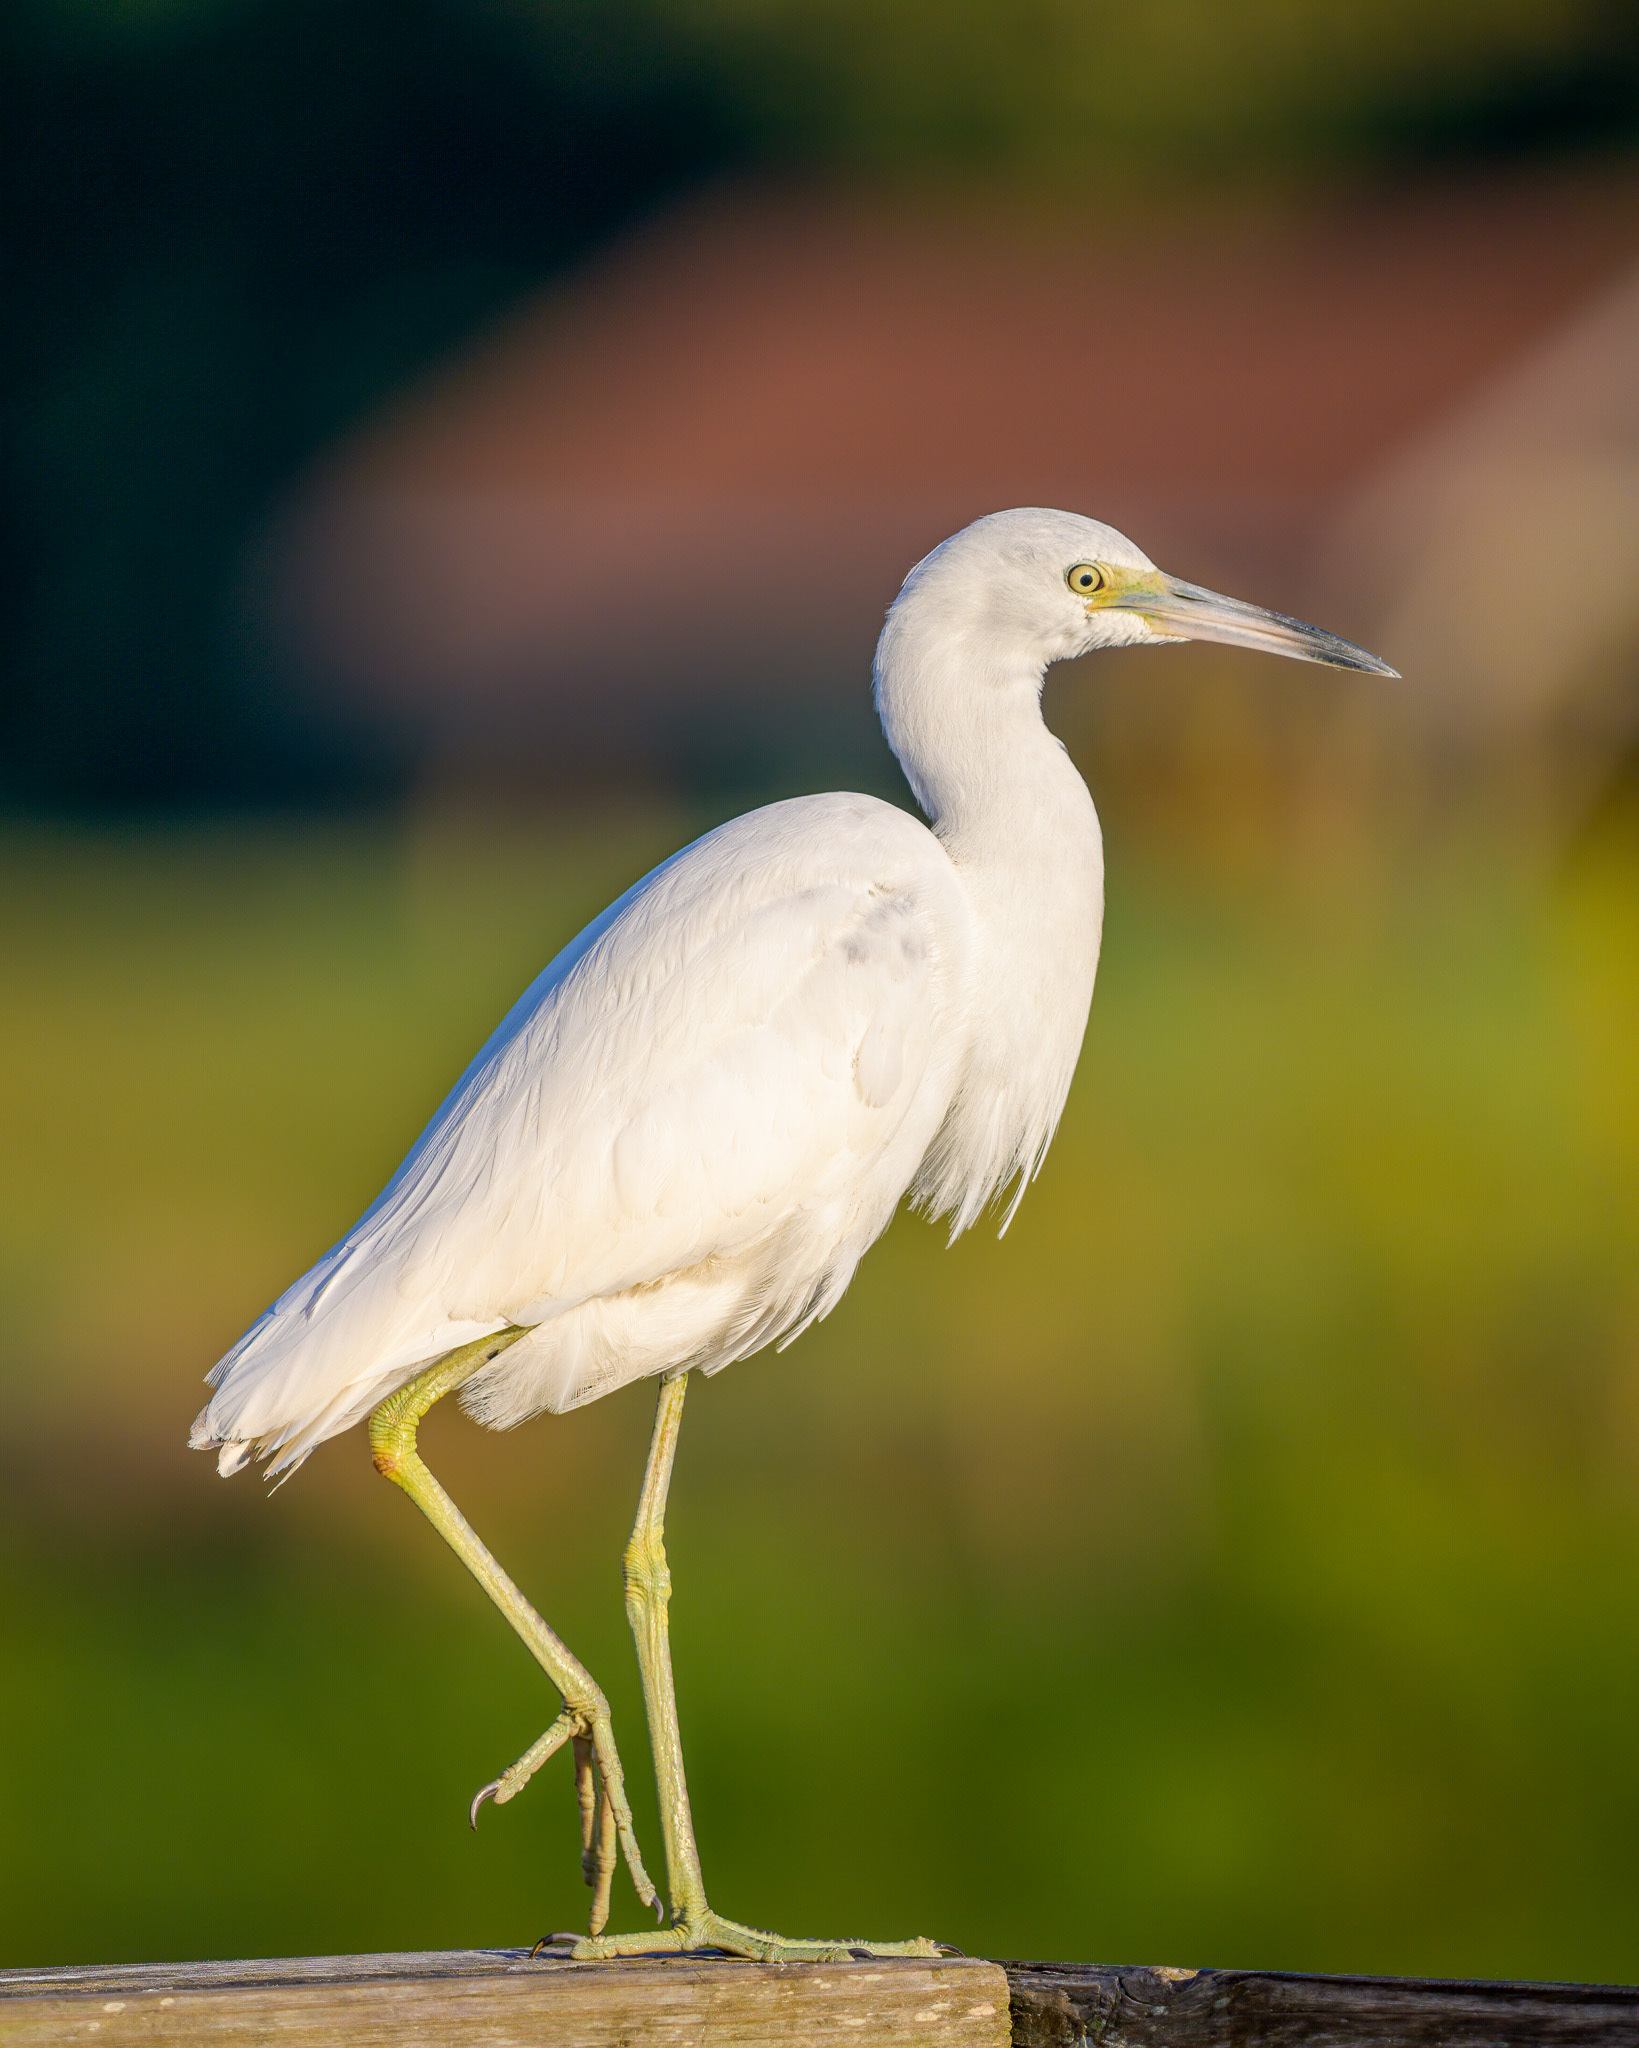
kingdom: Animalia
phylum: Chordata
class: Aves
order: Pelecaniformes
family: Ardeidae
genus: Egretta
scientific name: Egretta caerulea
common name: Little blue heron
